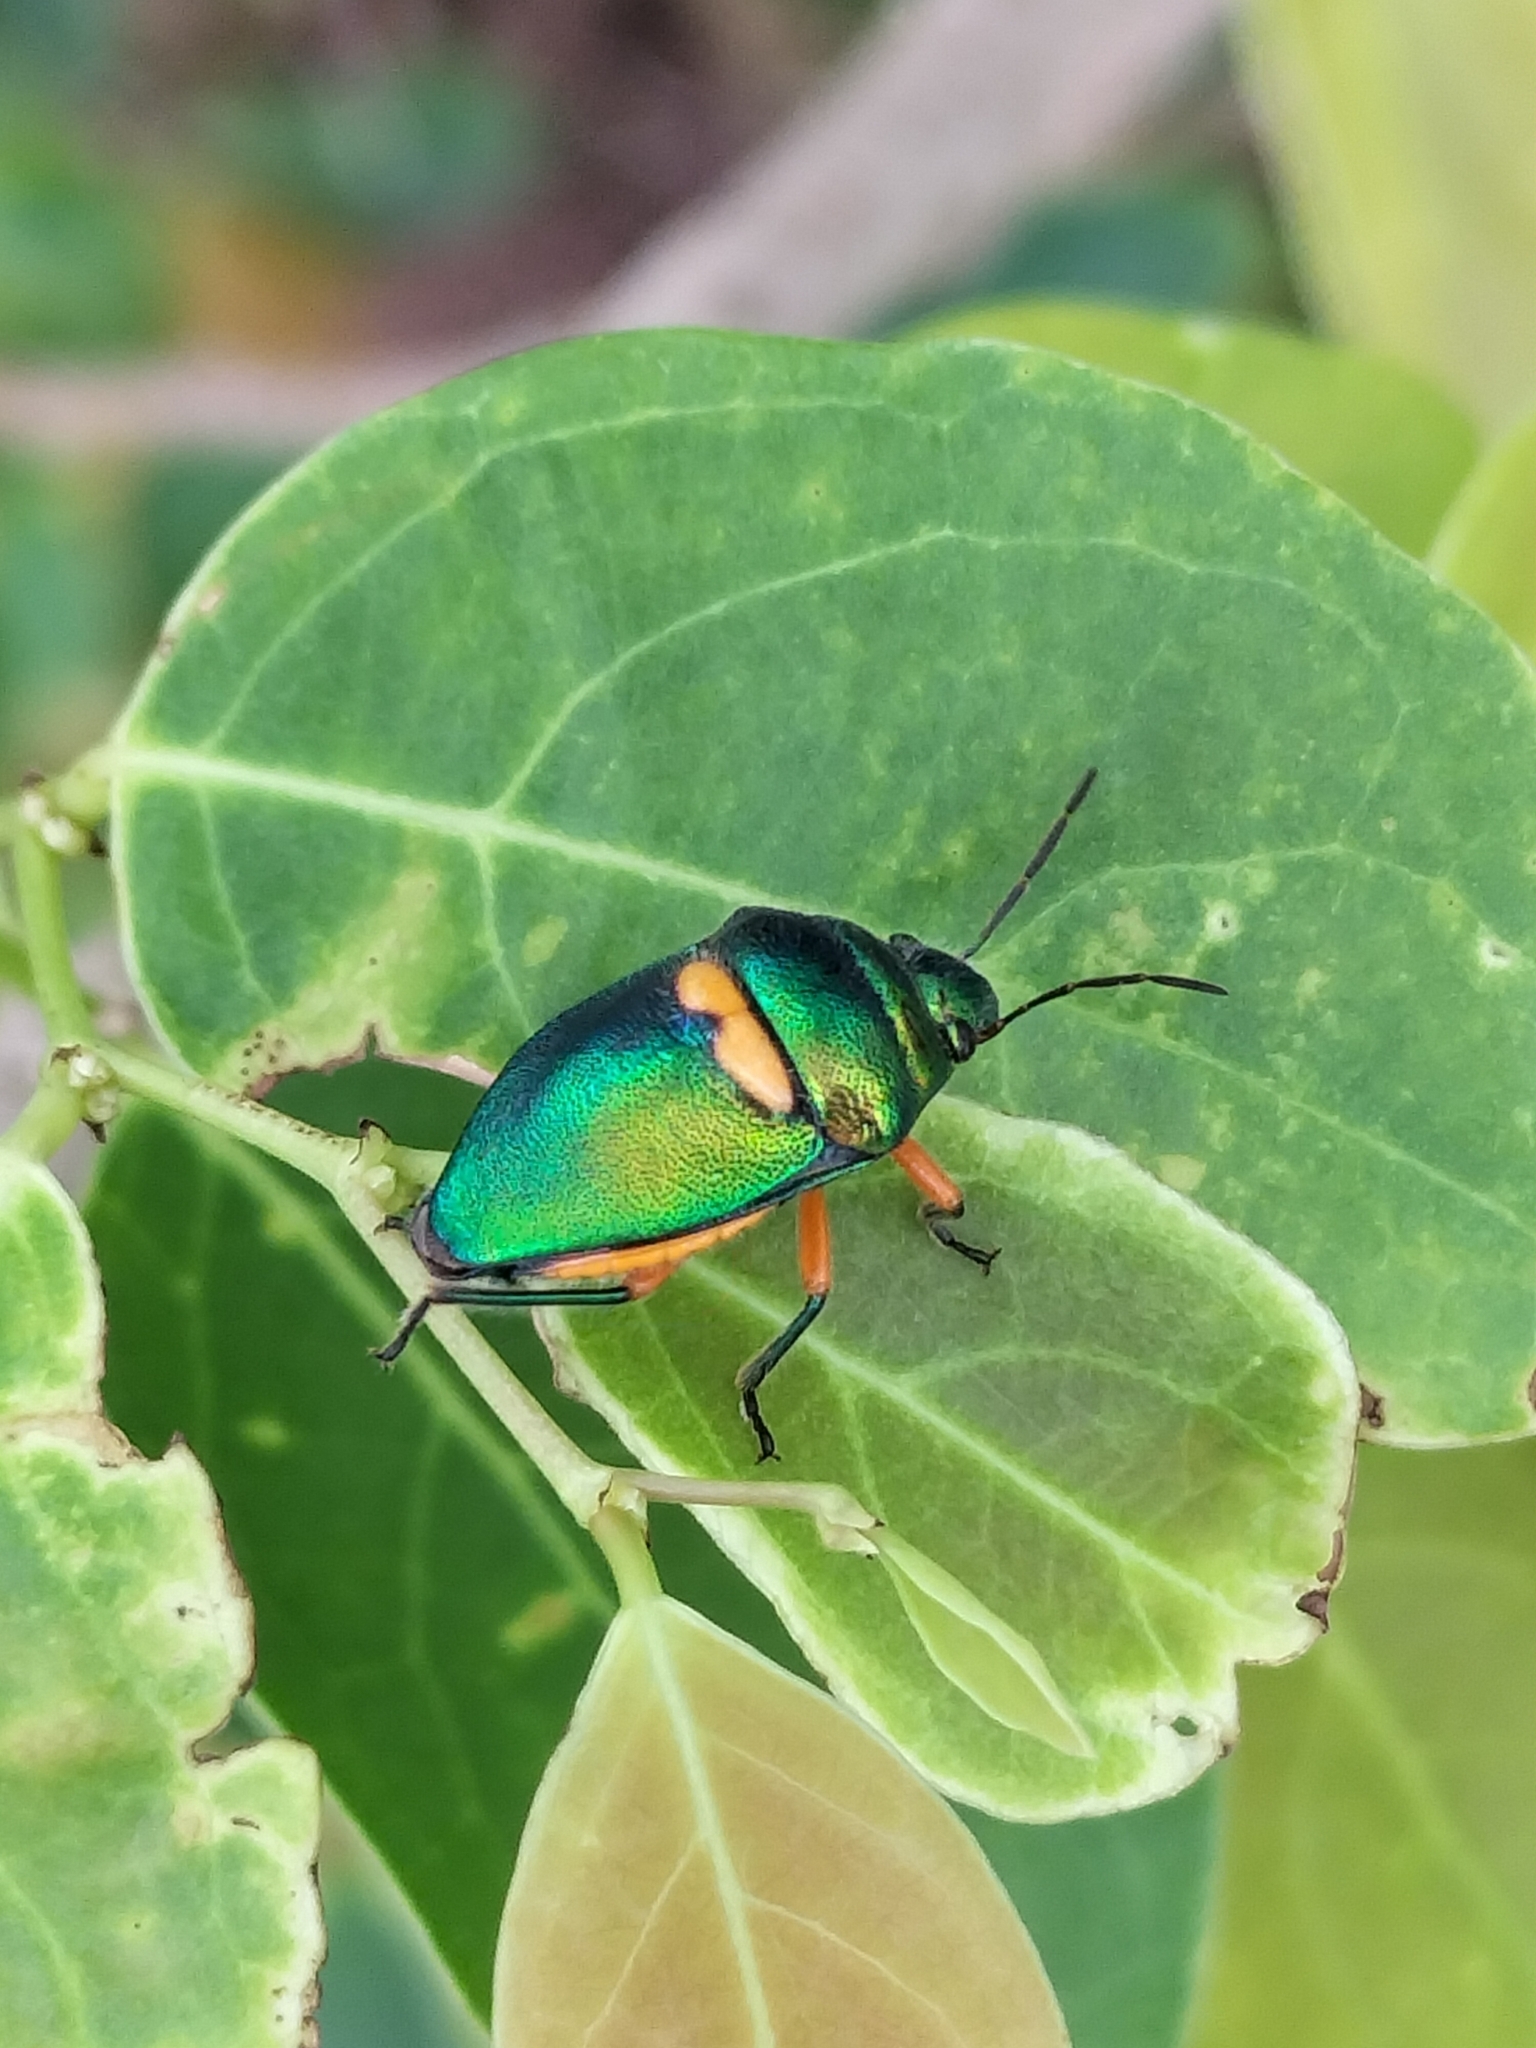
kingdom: Animalia
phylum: Arthropoda
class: Insecta
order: Hemiptera
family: Scutelleridae
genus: Lampromicra
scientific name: Lampromicra senator
